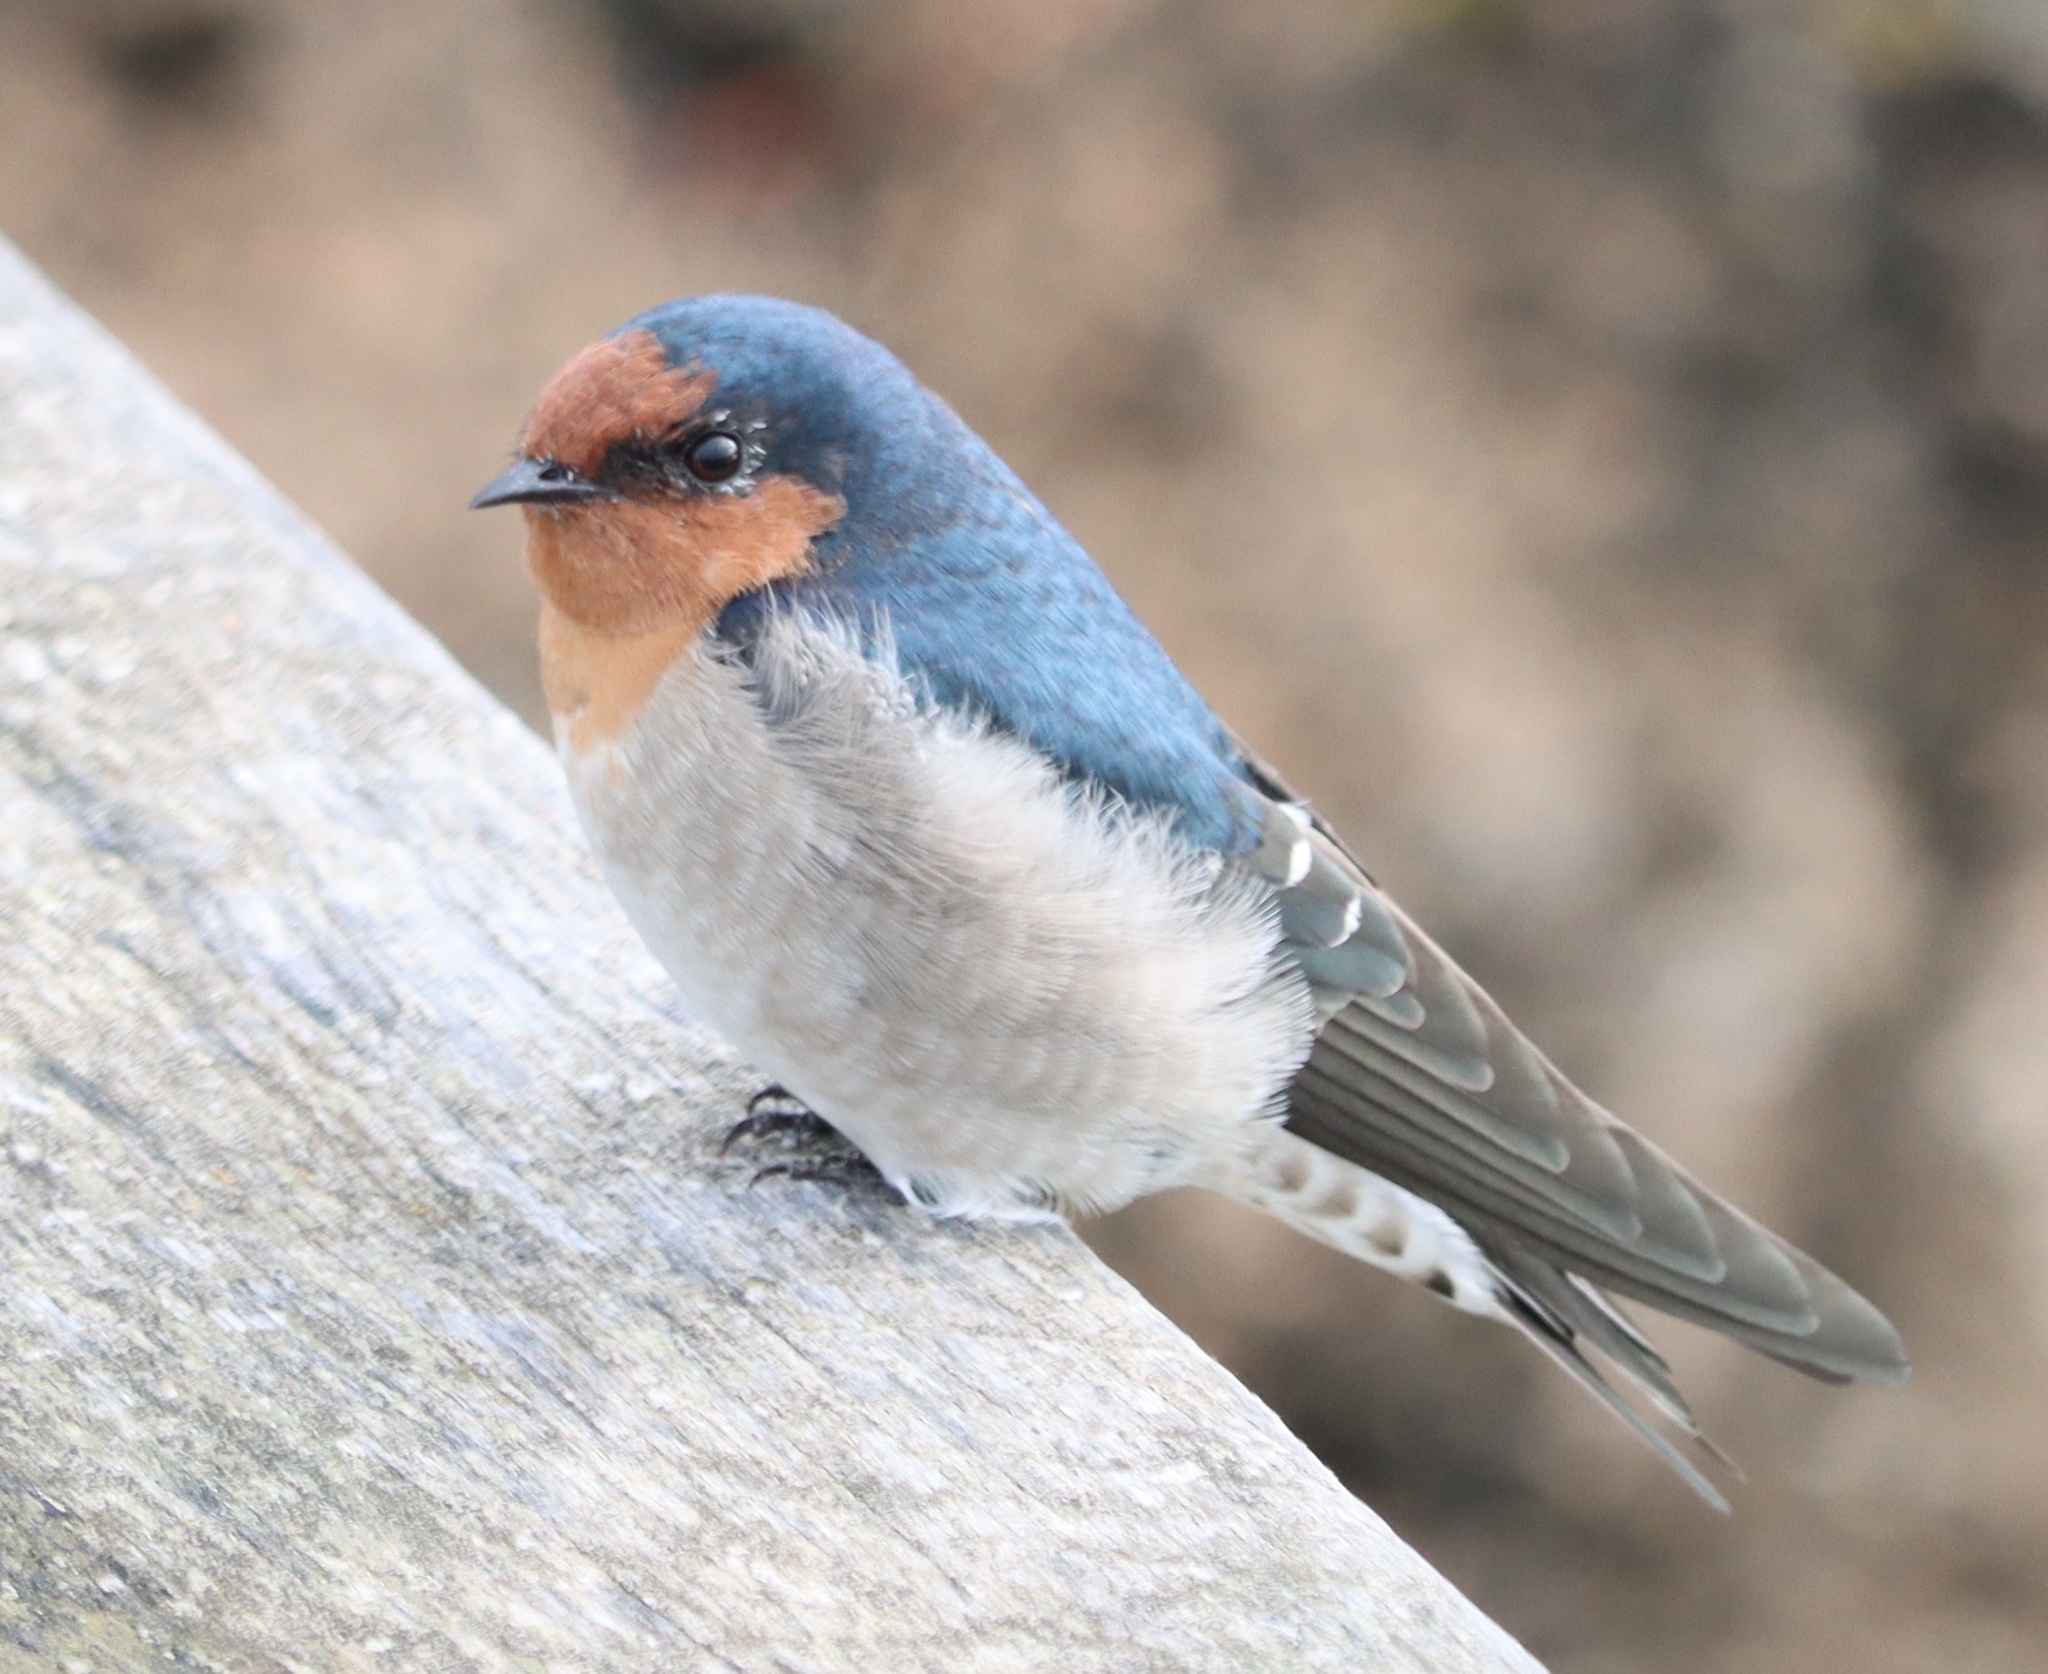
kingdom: Animalia
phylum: Chordata
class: Aves
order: Passeriformes
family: Hirundinidae
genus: Hirundo
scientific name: Hirundo neoxena
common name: Welcome swallow
